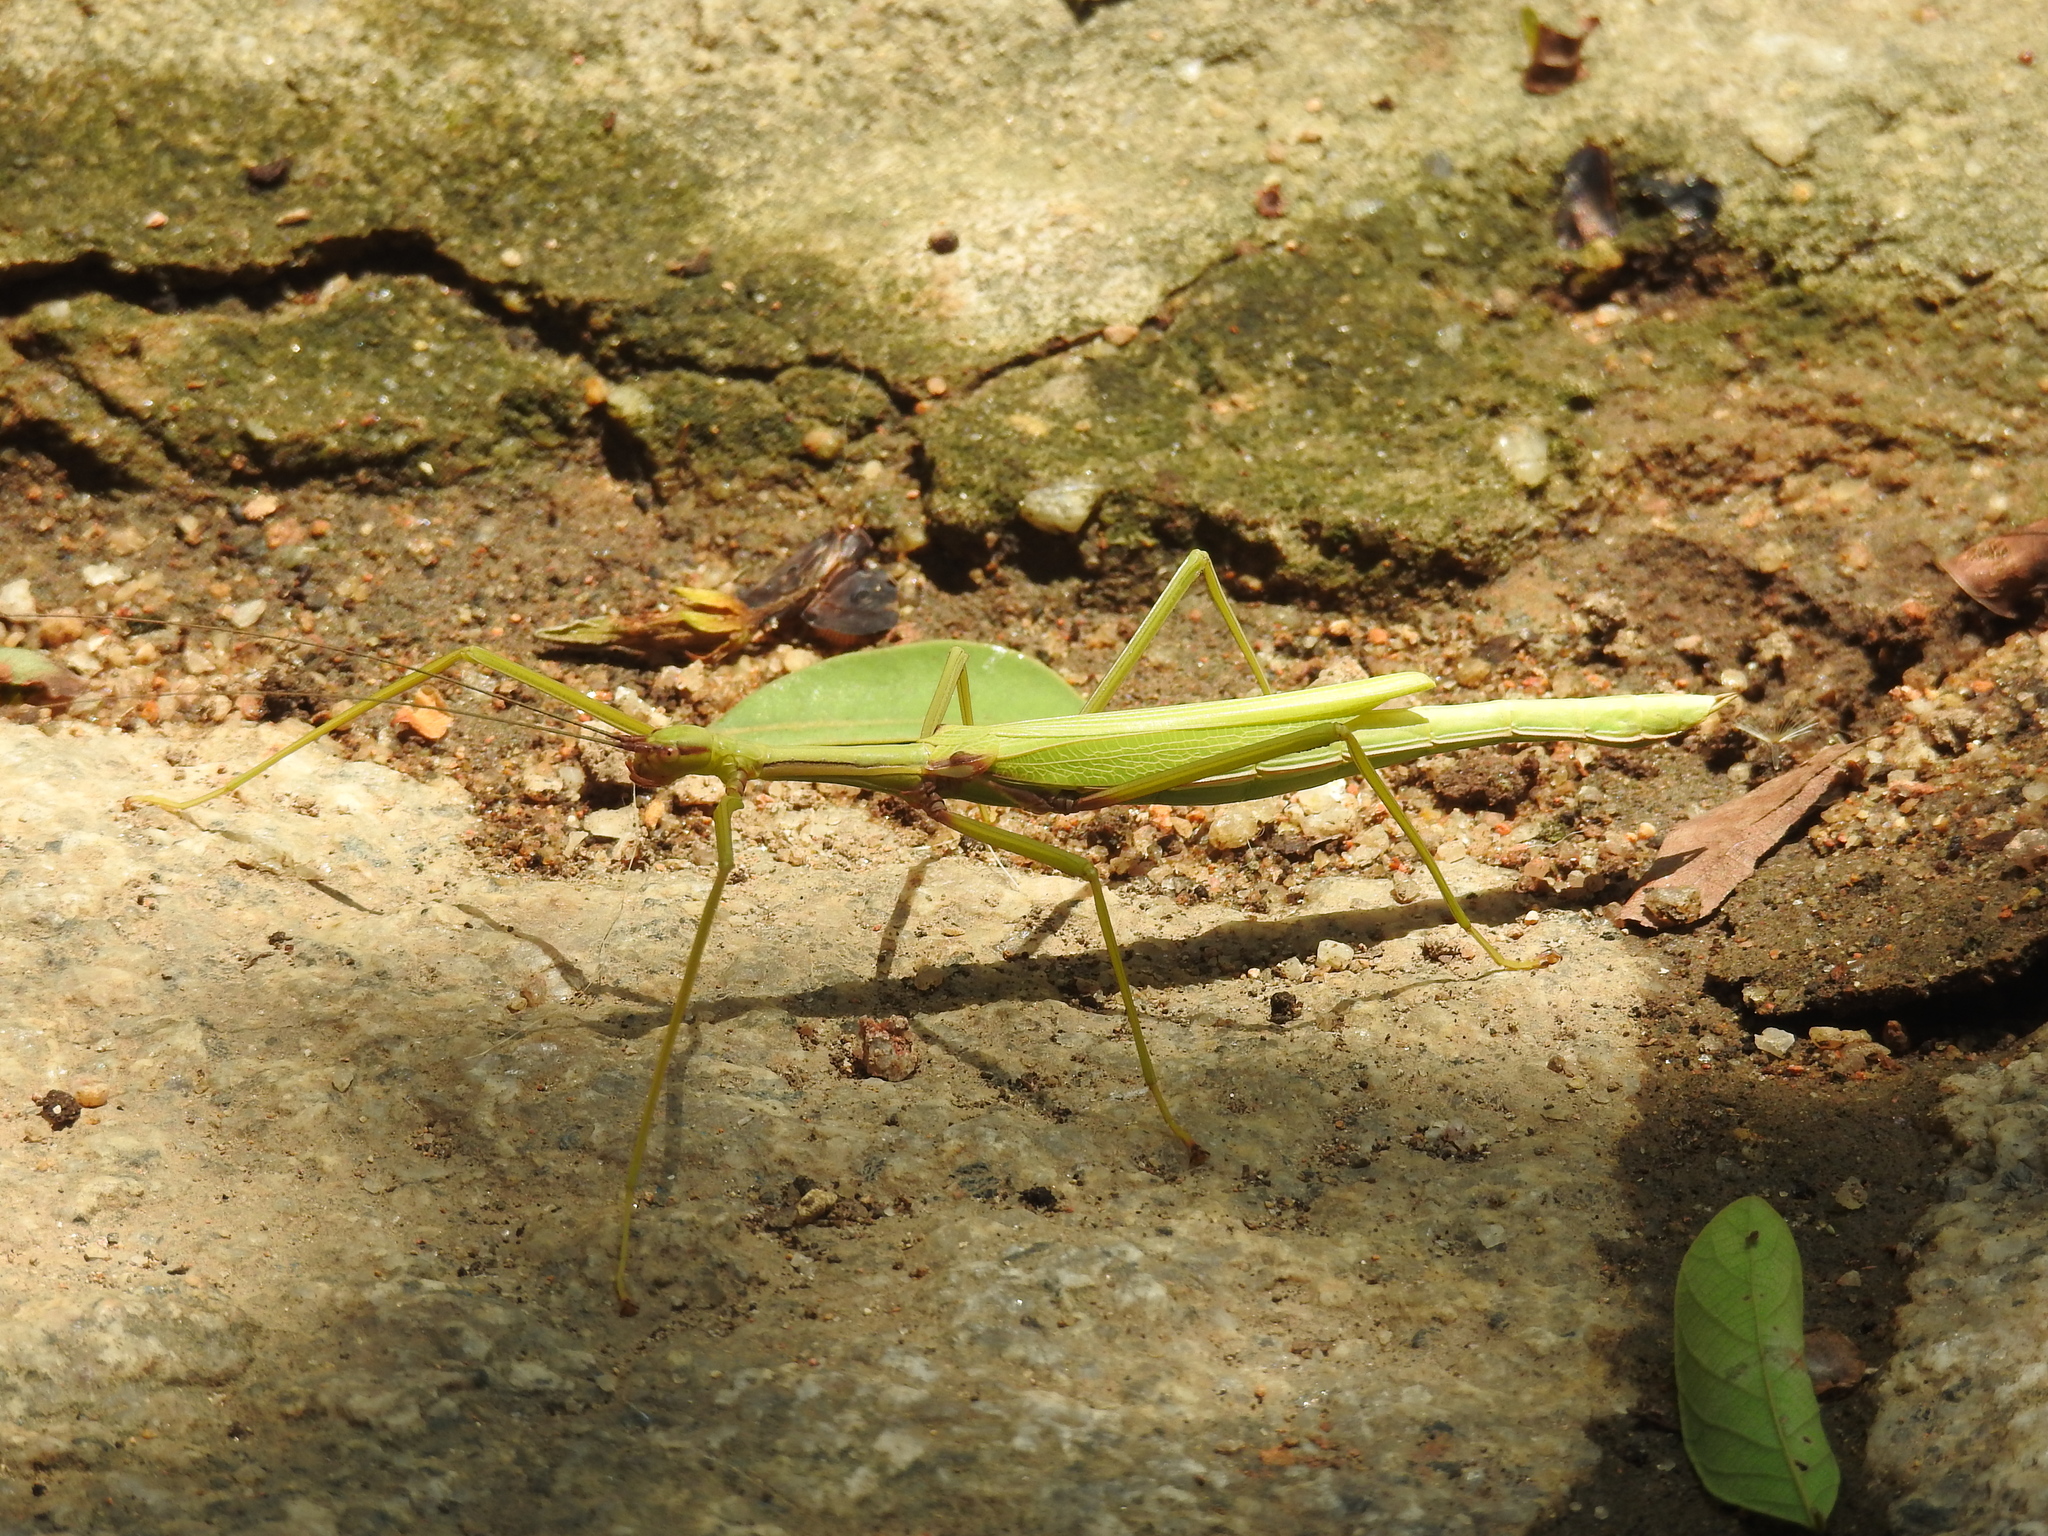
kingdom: Animalia
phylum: Arthropoda
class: Insecta
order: Phasmida
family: Lonchodidae
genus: Huananphasma
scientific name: Huananphasma amicum
